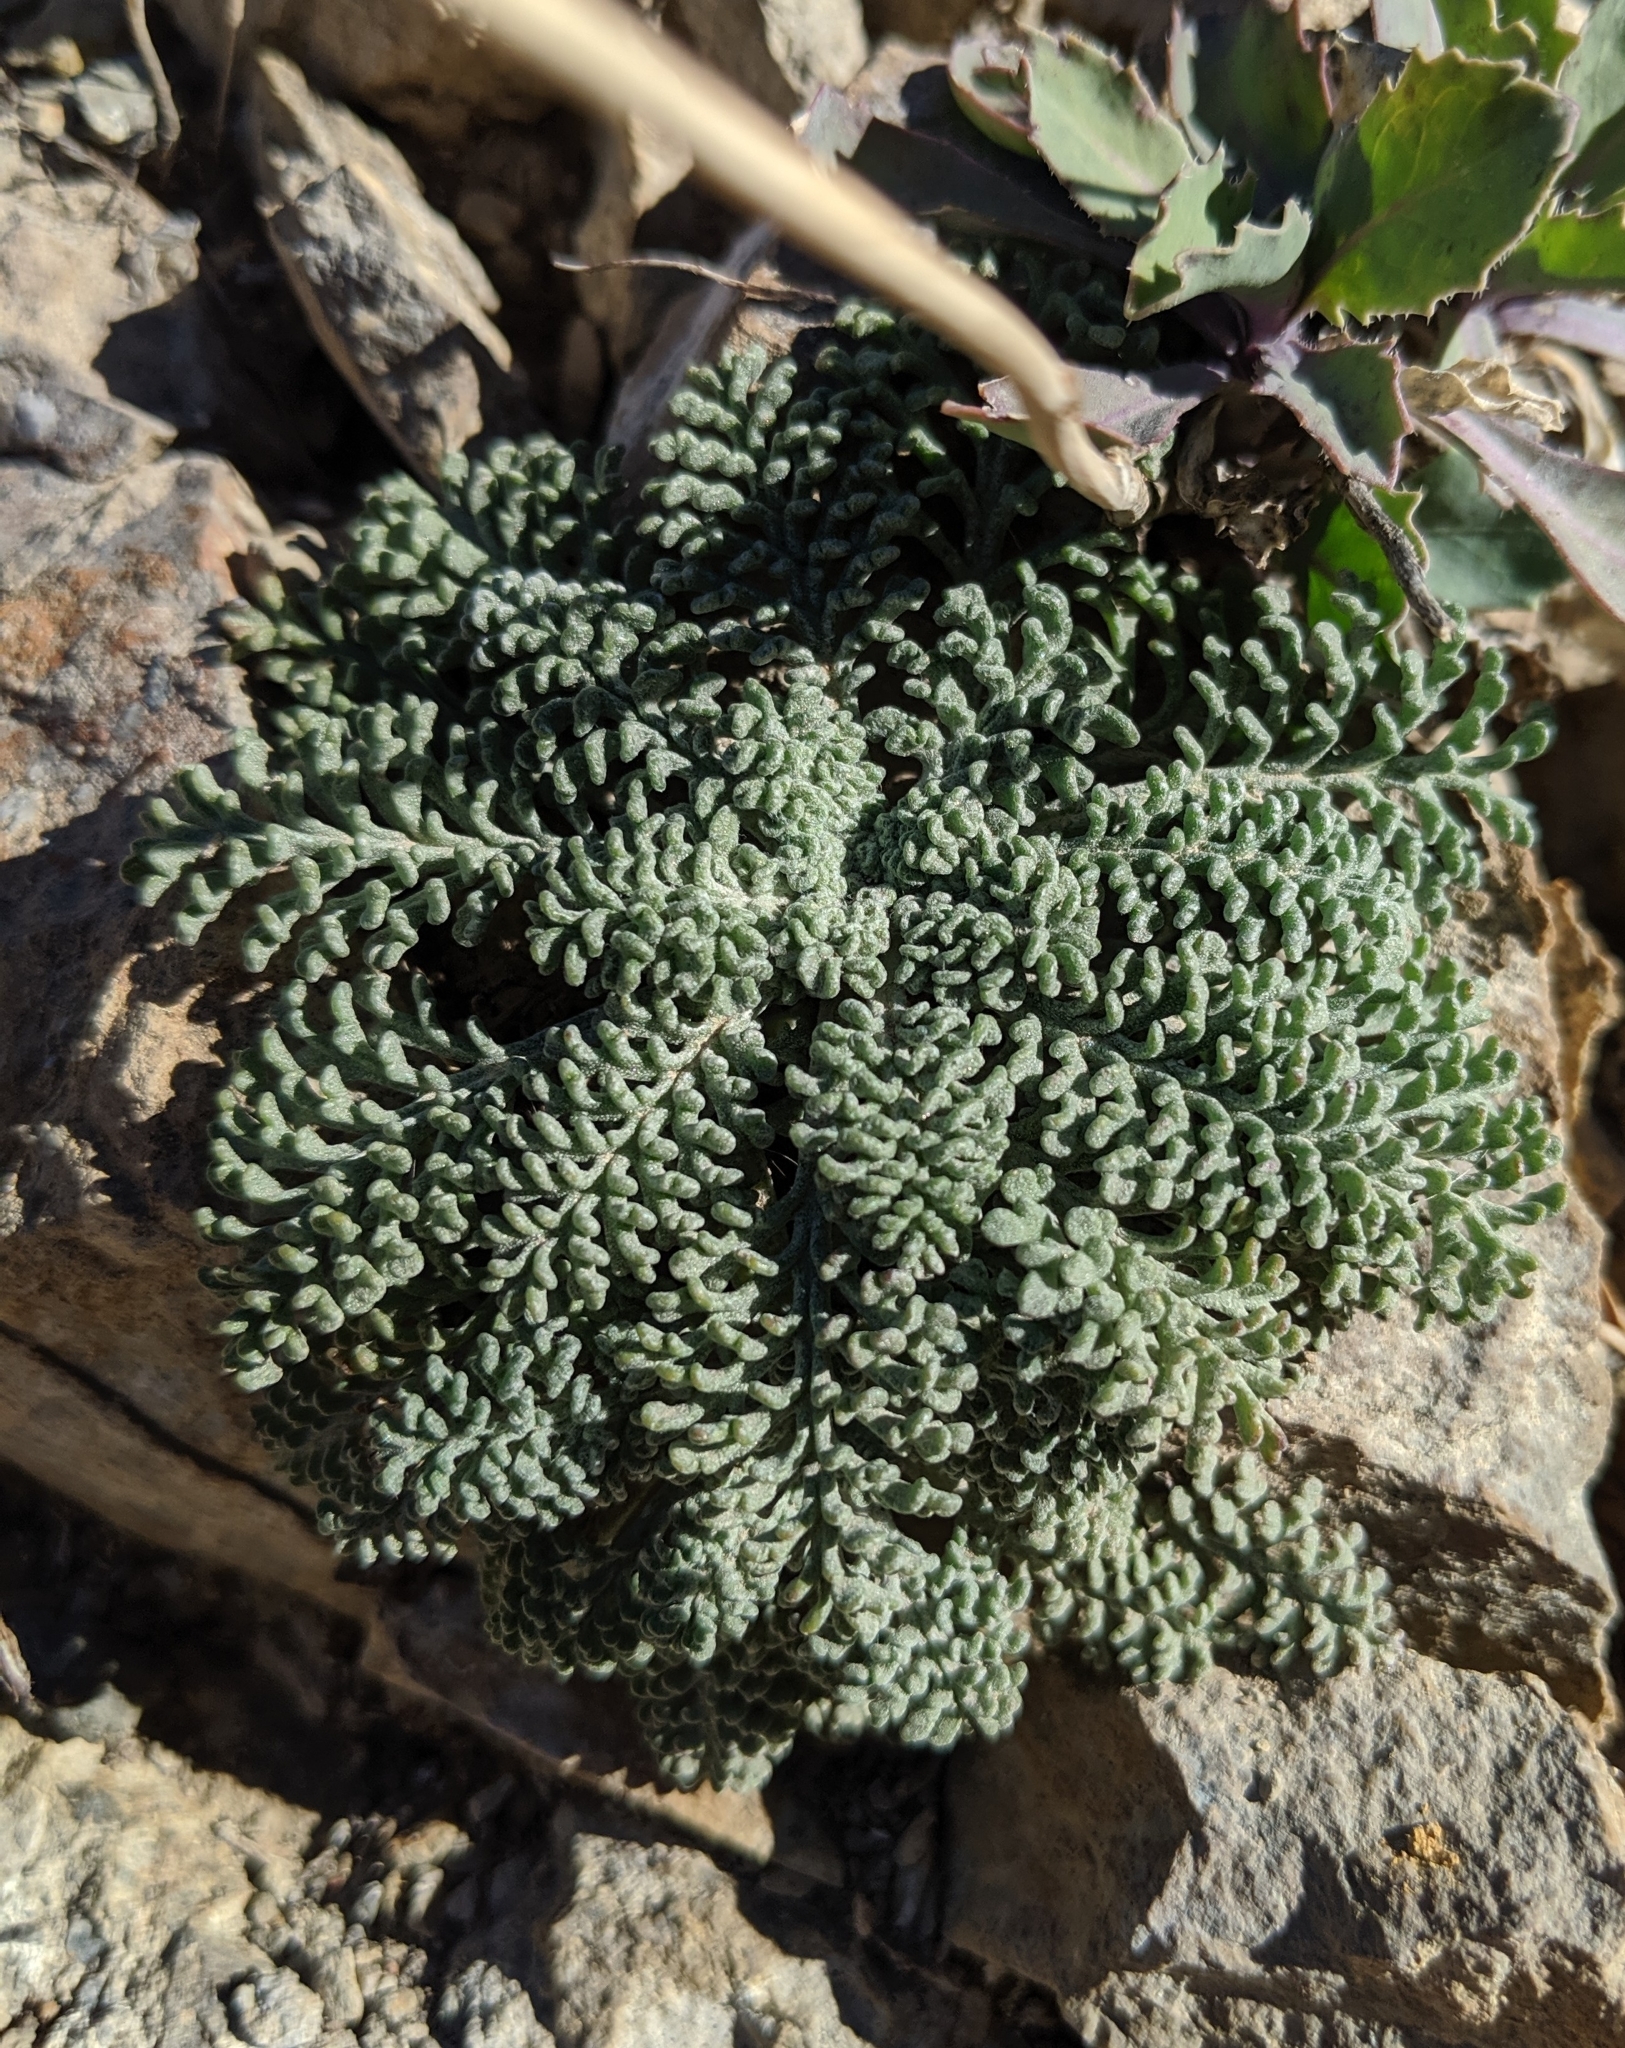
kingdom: Plantae
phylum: Tracheophyta
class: Magnoliopsida
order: Asterales
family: Asteraceae
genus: Chaenactis
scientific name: Chaenactis douglasii
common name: Hoary pincushion
